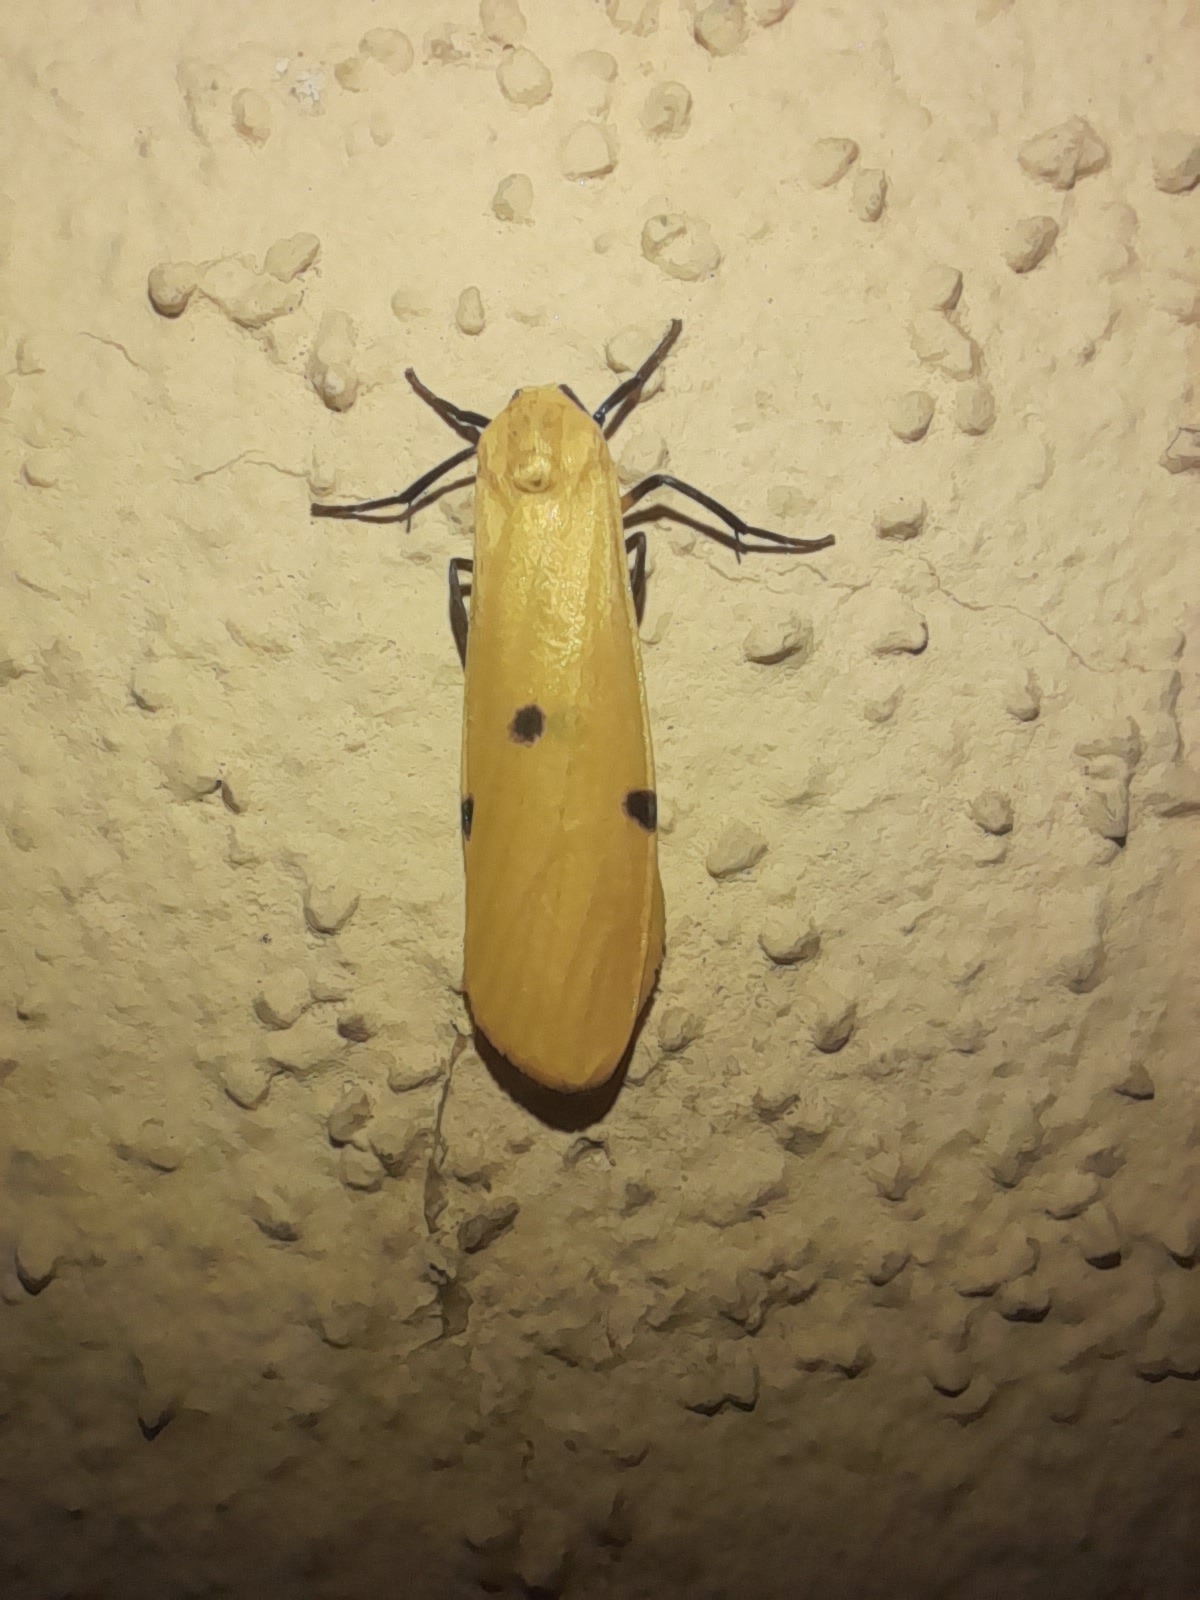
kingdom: Animalia
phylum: Arthropoda
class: Insecta
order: Lepidoptera
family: Erebidae
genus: Lithosia
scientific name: Lithosia quadra
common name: Four-spotted footman
